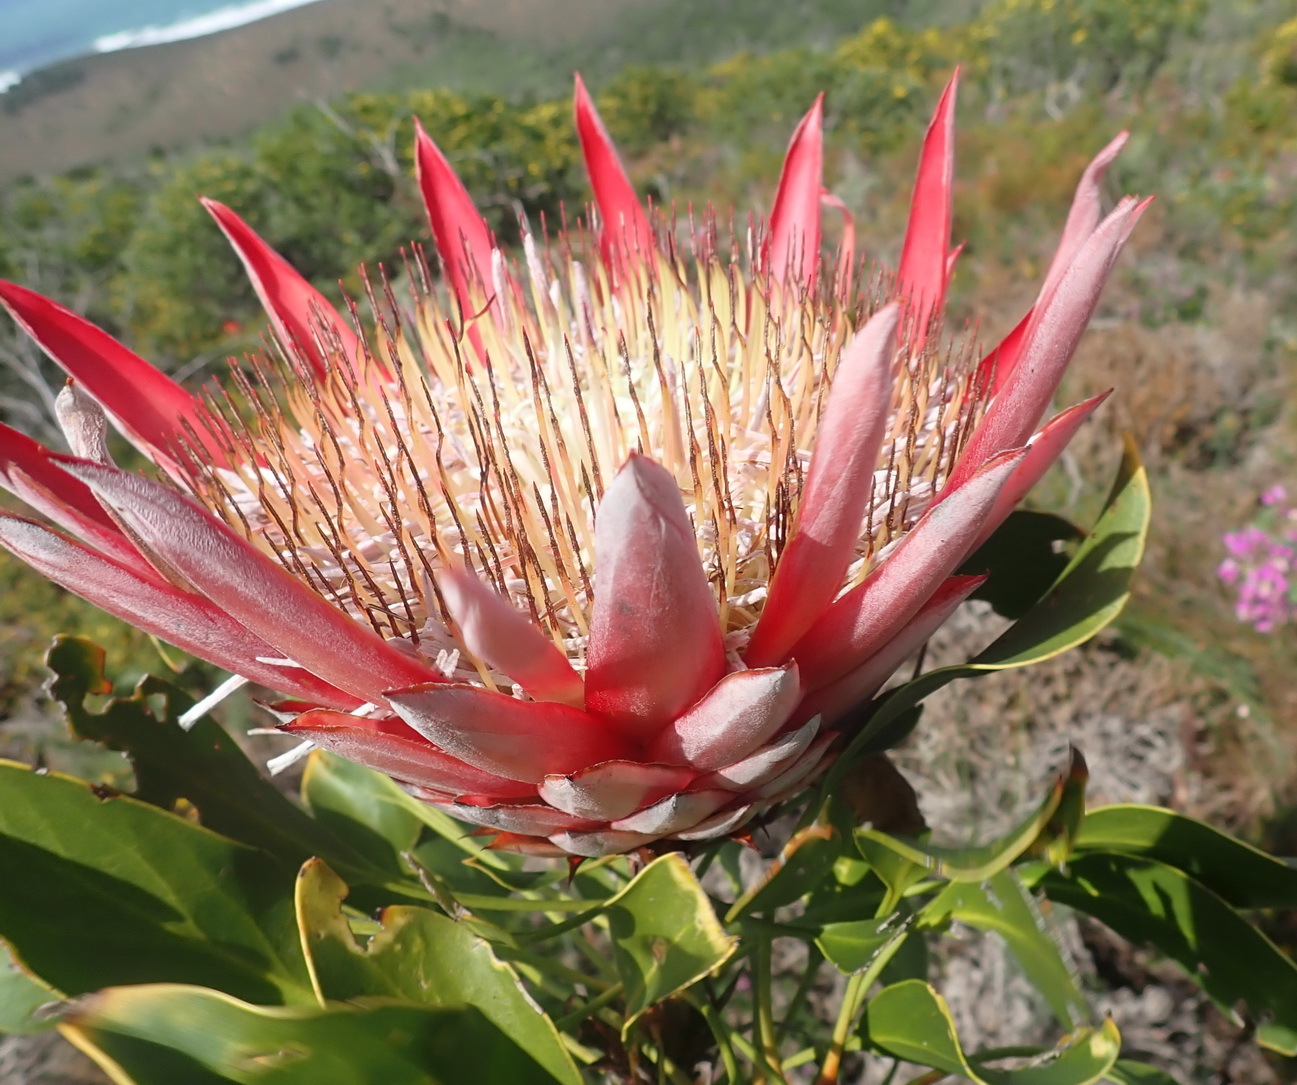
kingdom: Plantae
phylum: Tracheophyta
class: Magnoliopsida
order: Proteales
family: Proteaceae
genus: Protea
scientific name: Protea cynaroides
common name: King protea
